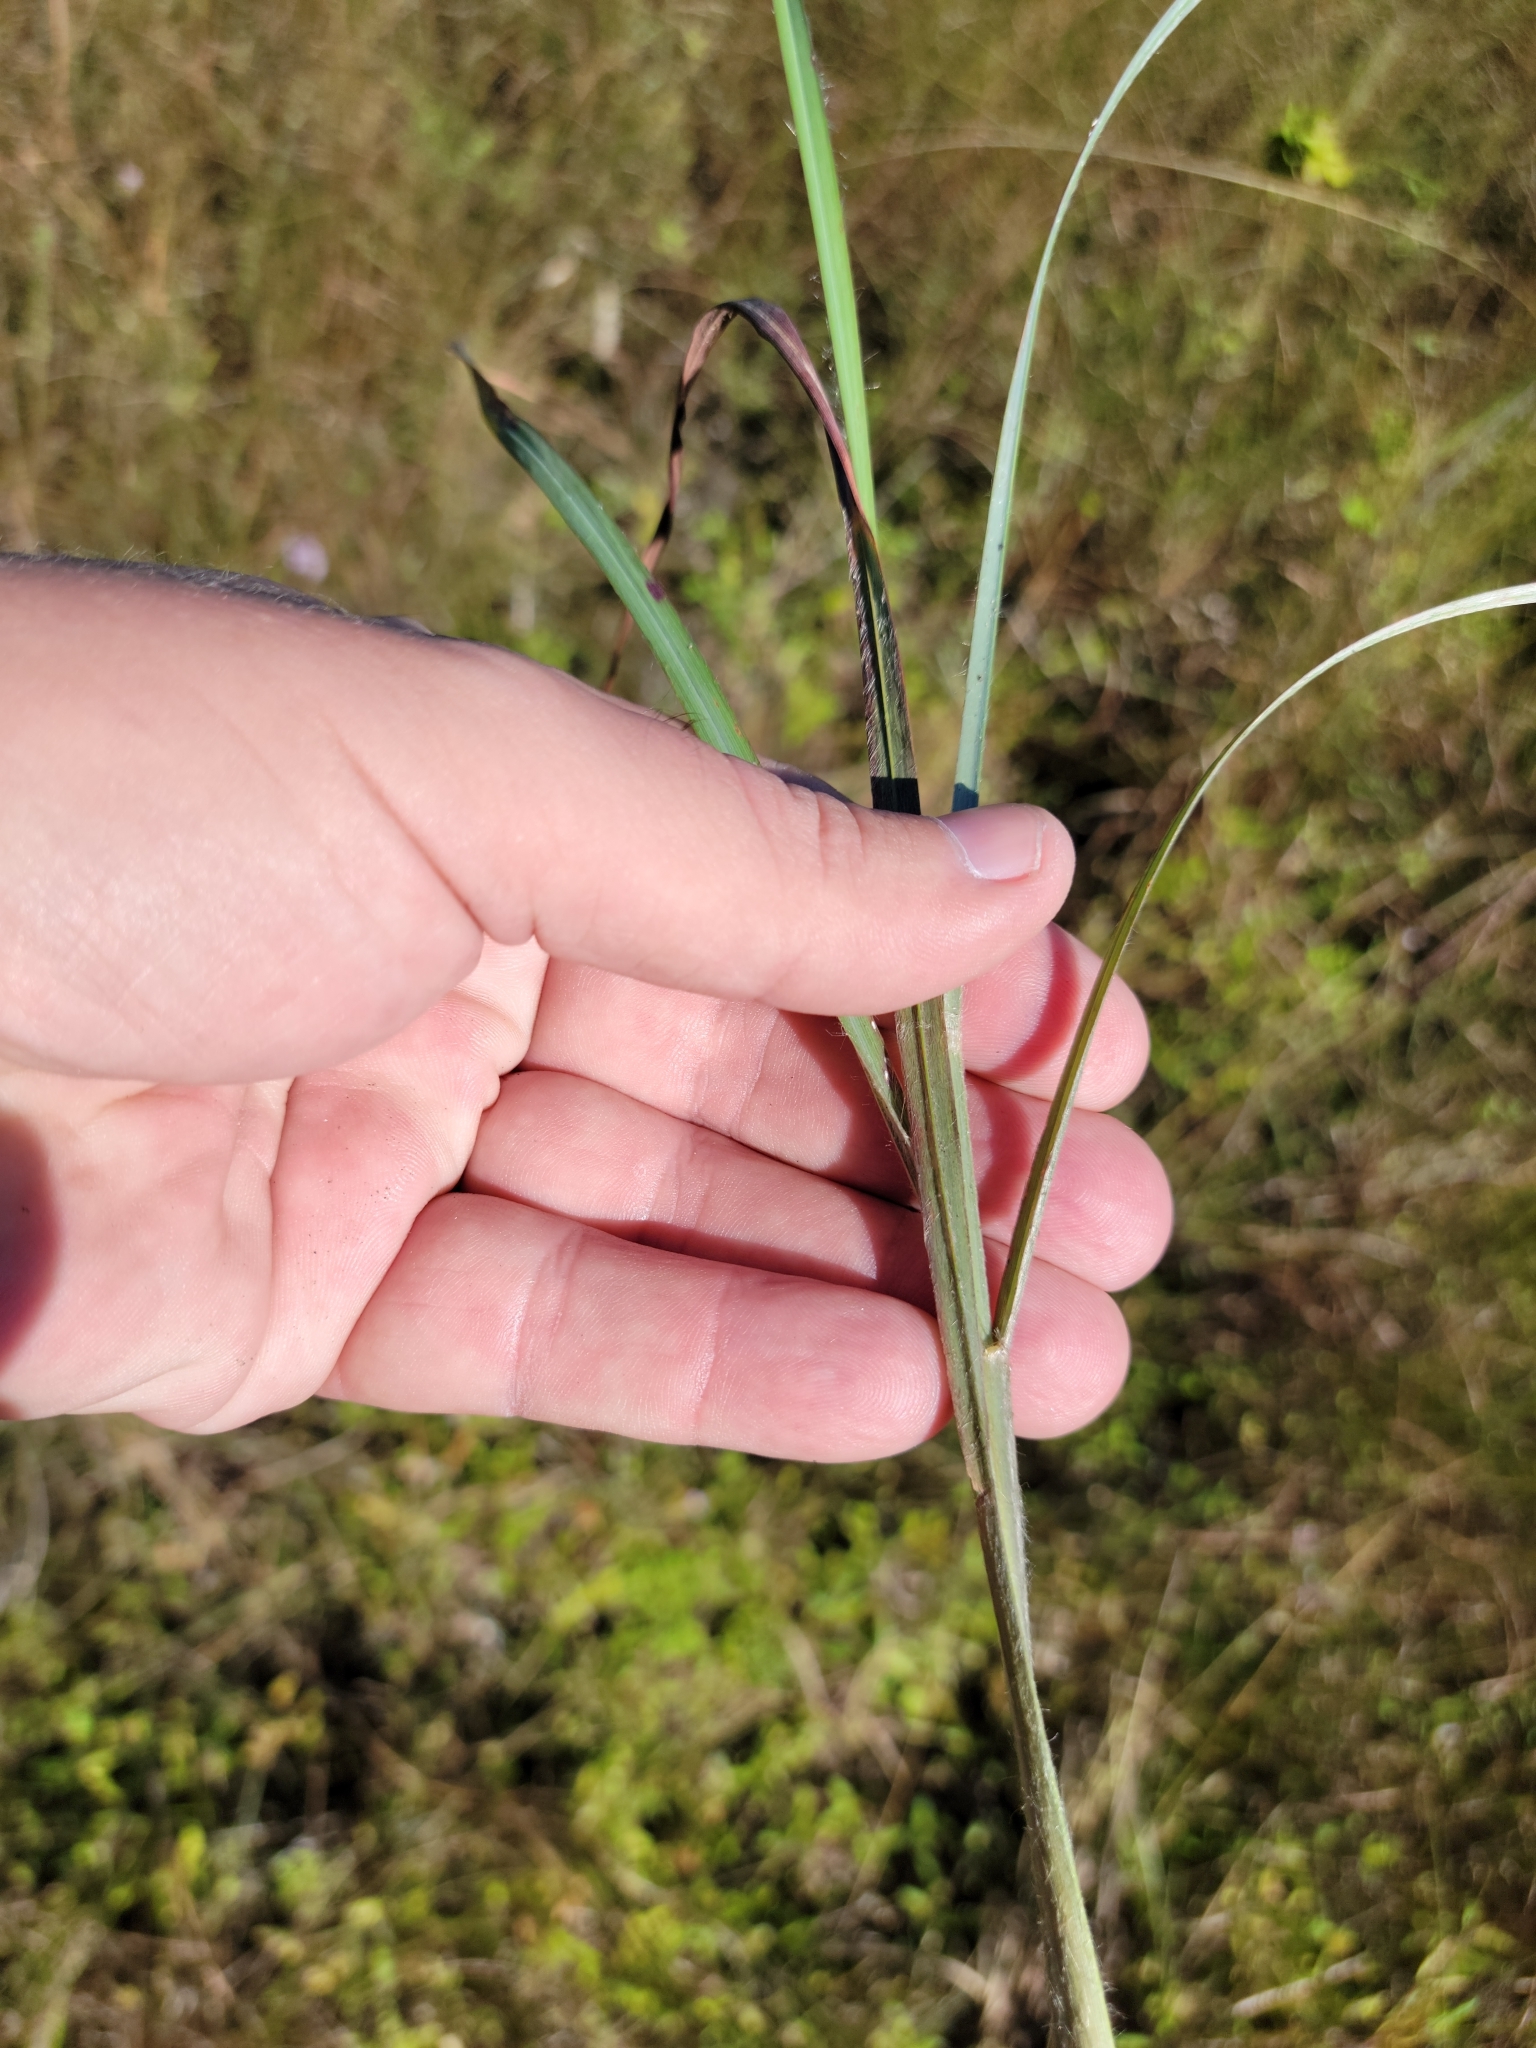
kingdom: Plantae
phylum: Tracheophyta
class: Liliopsida
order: Poales
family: Poaceae
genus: Andropogon
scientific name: Andropogon longiberbis
